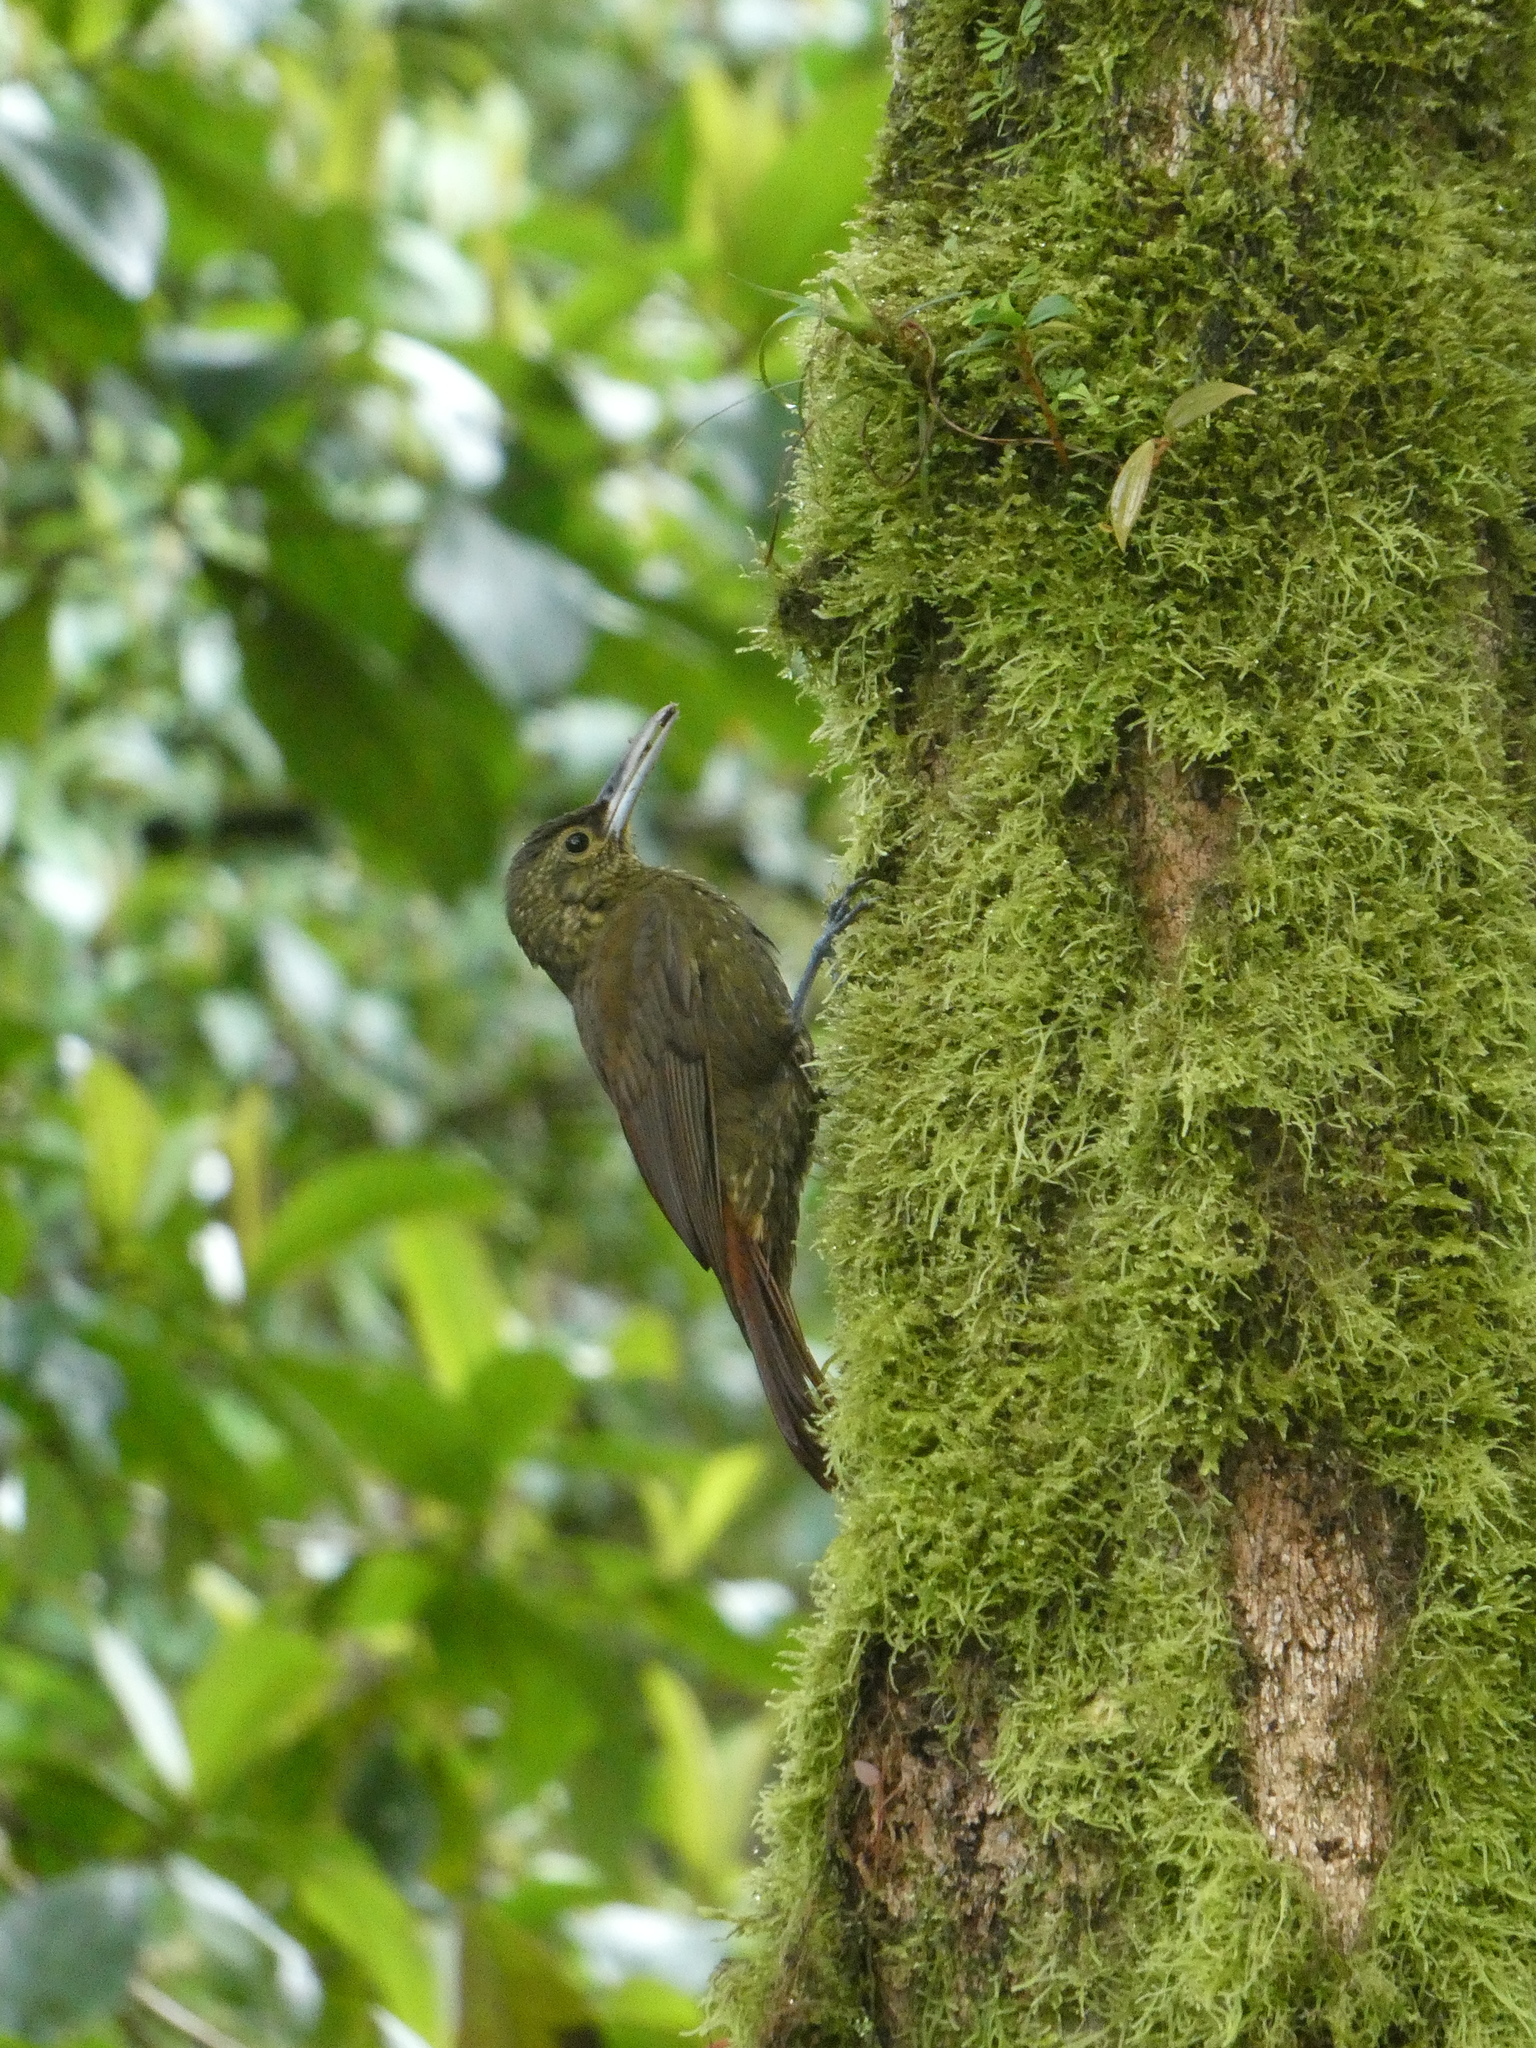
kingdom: Animalia
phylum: Chordata
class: Aves
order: Passeriformes
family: Furnariidae
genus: Xiphorhynchus
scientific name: Xiphorhynchus erythropygius
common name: Spotted woodcreeper
